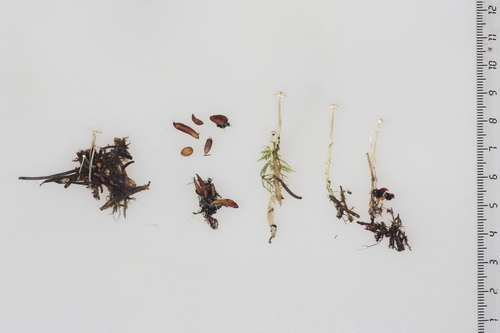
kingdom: Fungi
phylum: Basidiomycota
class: Agaricomycetes
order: Agaricales
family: Tricholomataceae
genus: Collybia
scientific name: Collybia tuberosa
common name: Lentil shanklet
